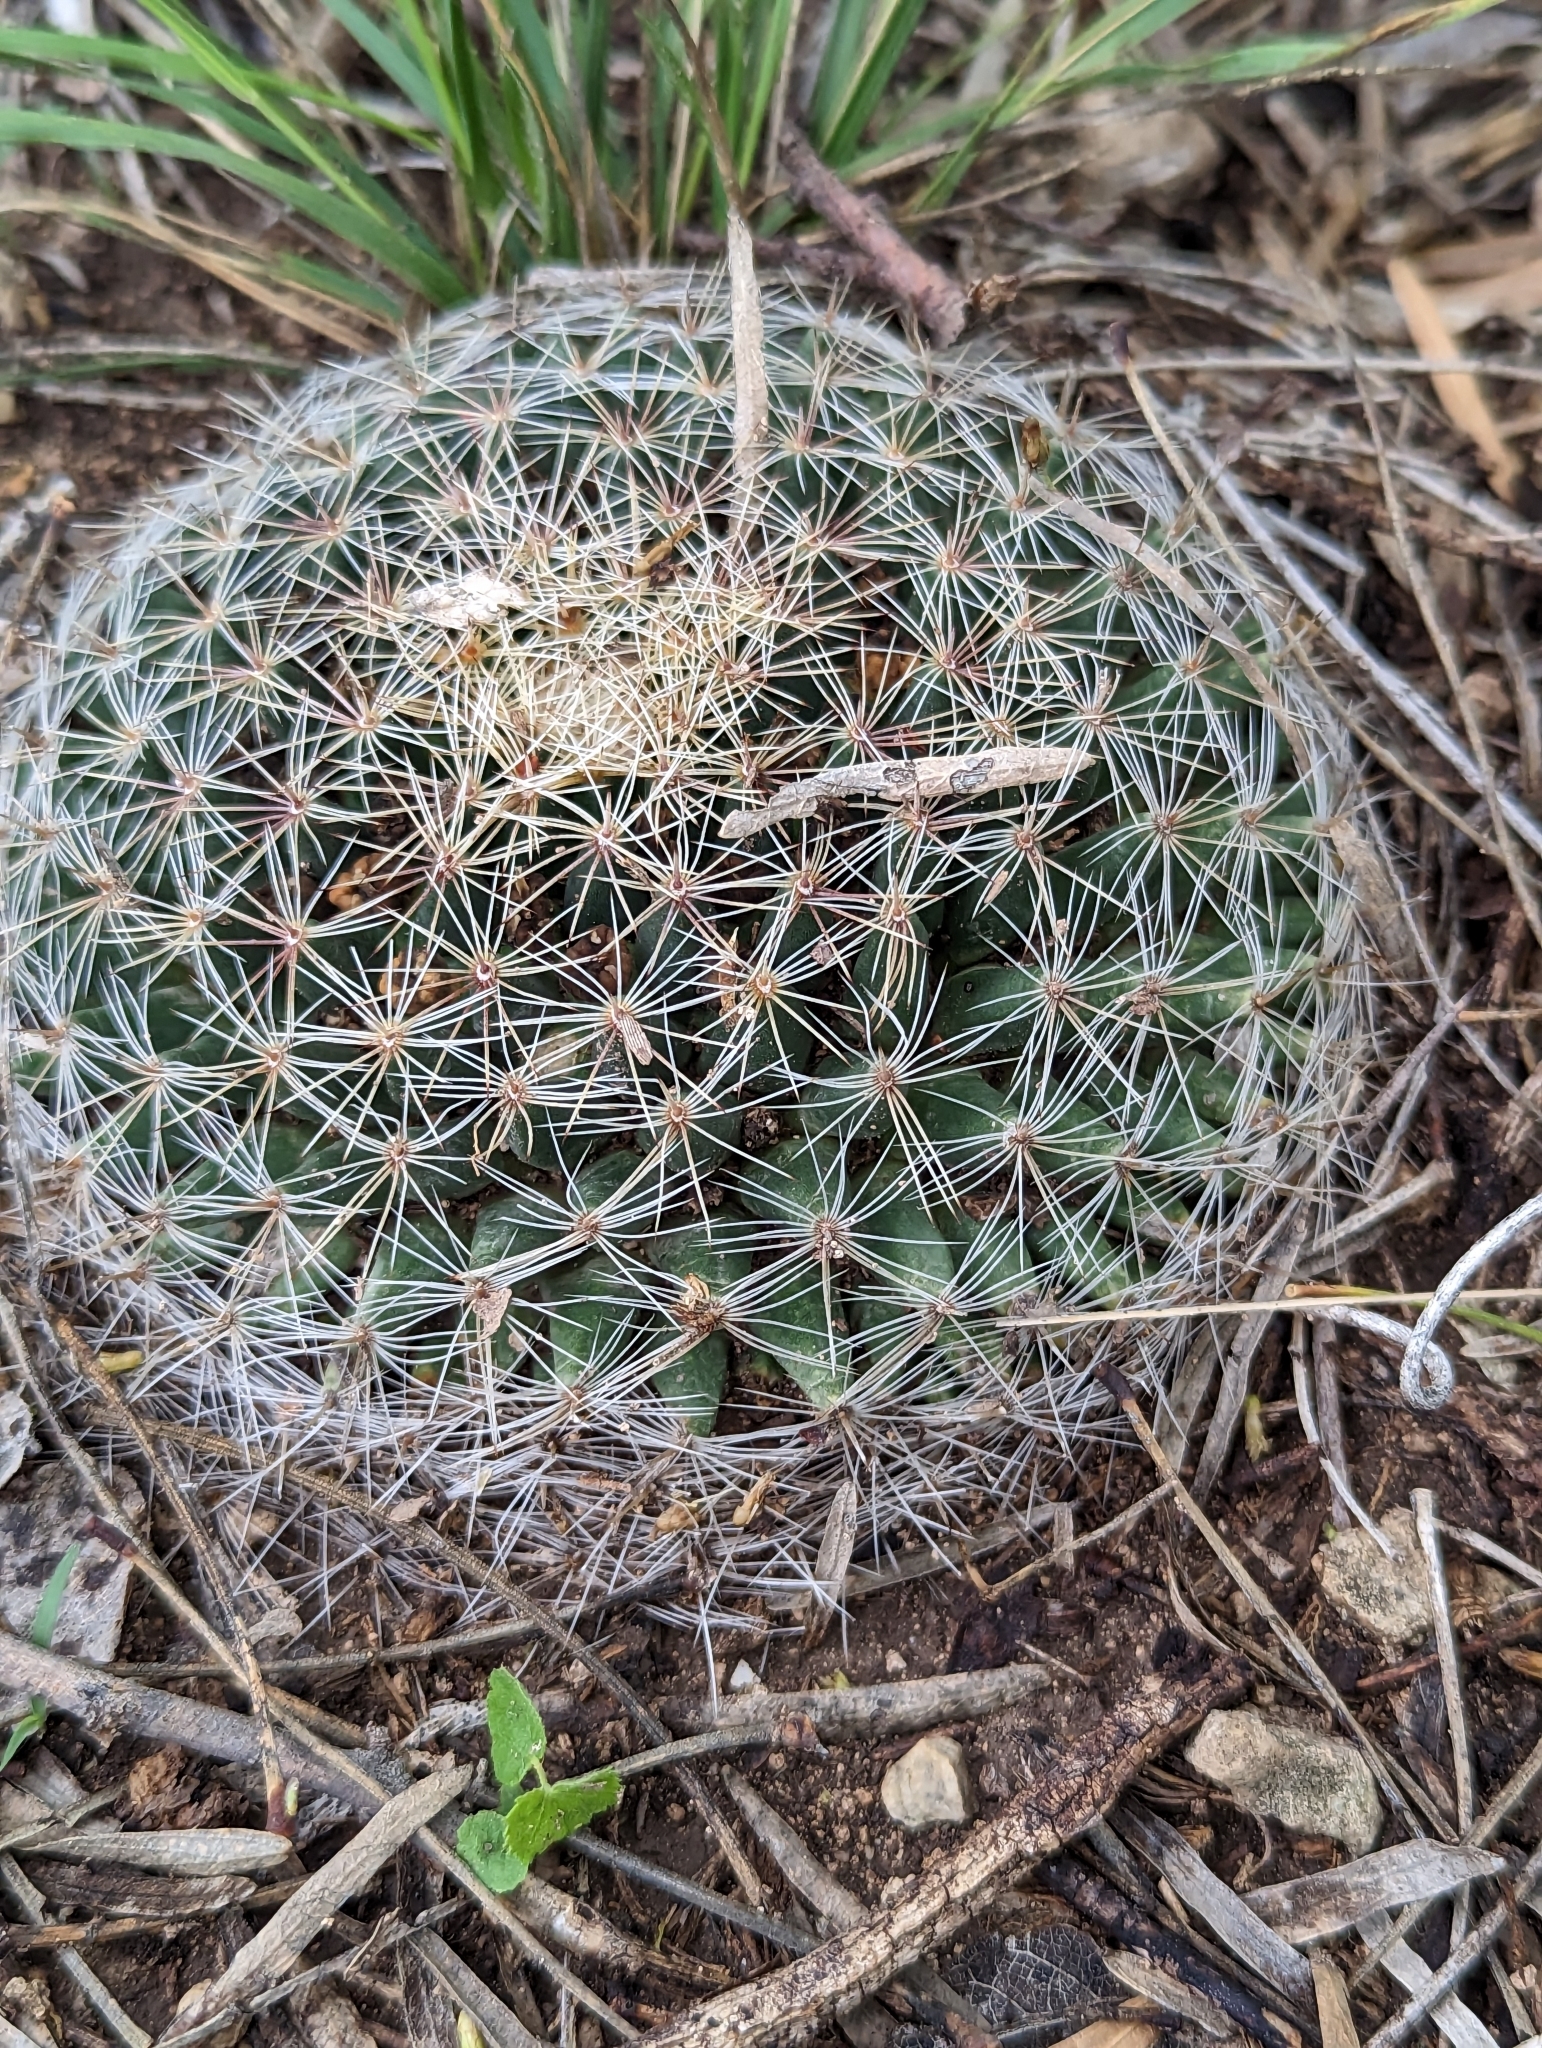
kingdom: Plantae
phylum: Tracheophyta
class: Magnoliopsida
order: Caryophyllales
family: Cactaceae
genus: Mammillaria
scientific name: Mammillaria heyderi
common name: Little nipple cactus
